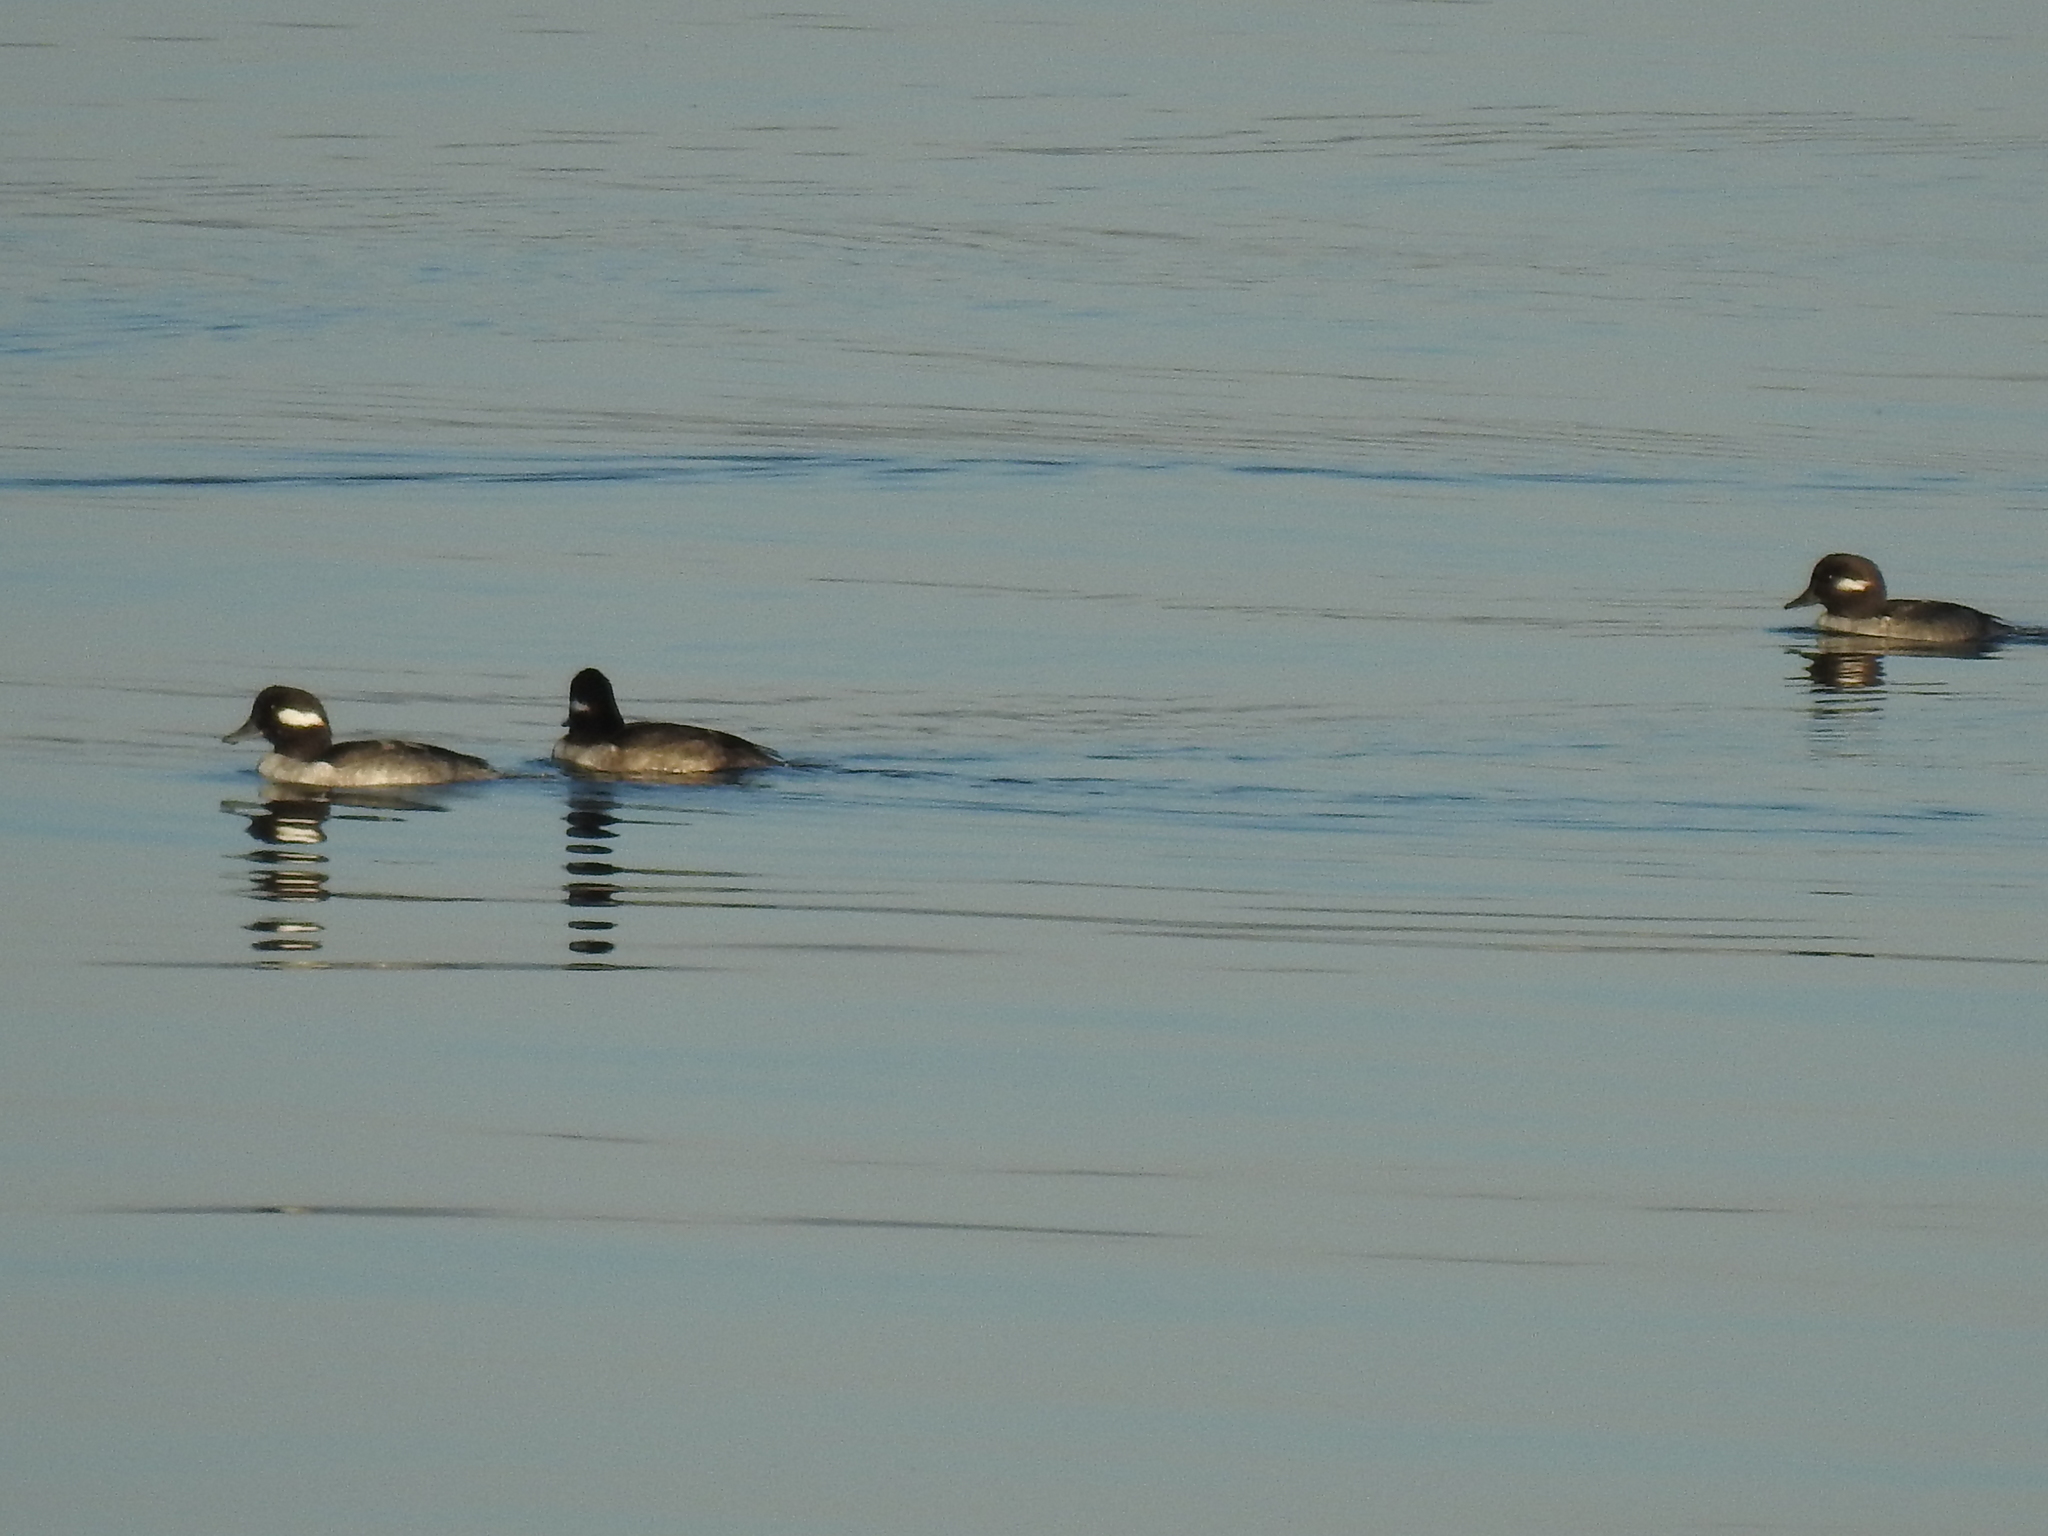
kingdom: Animalia
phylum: Chordata
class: Aves
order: Anseriformes
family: Anatidae
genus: Bucephala
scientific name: Bucephala albeola
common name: Bufflehead
